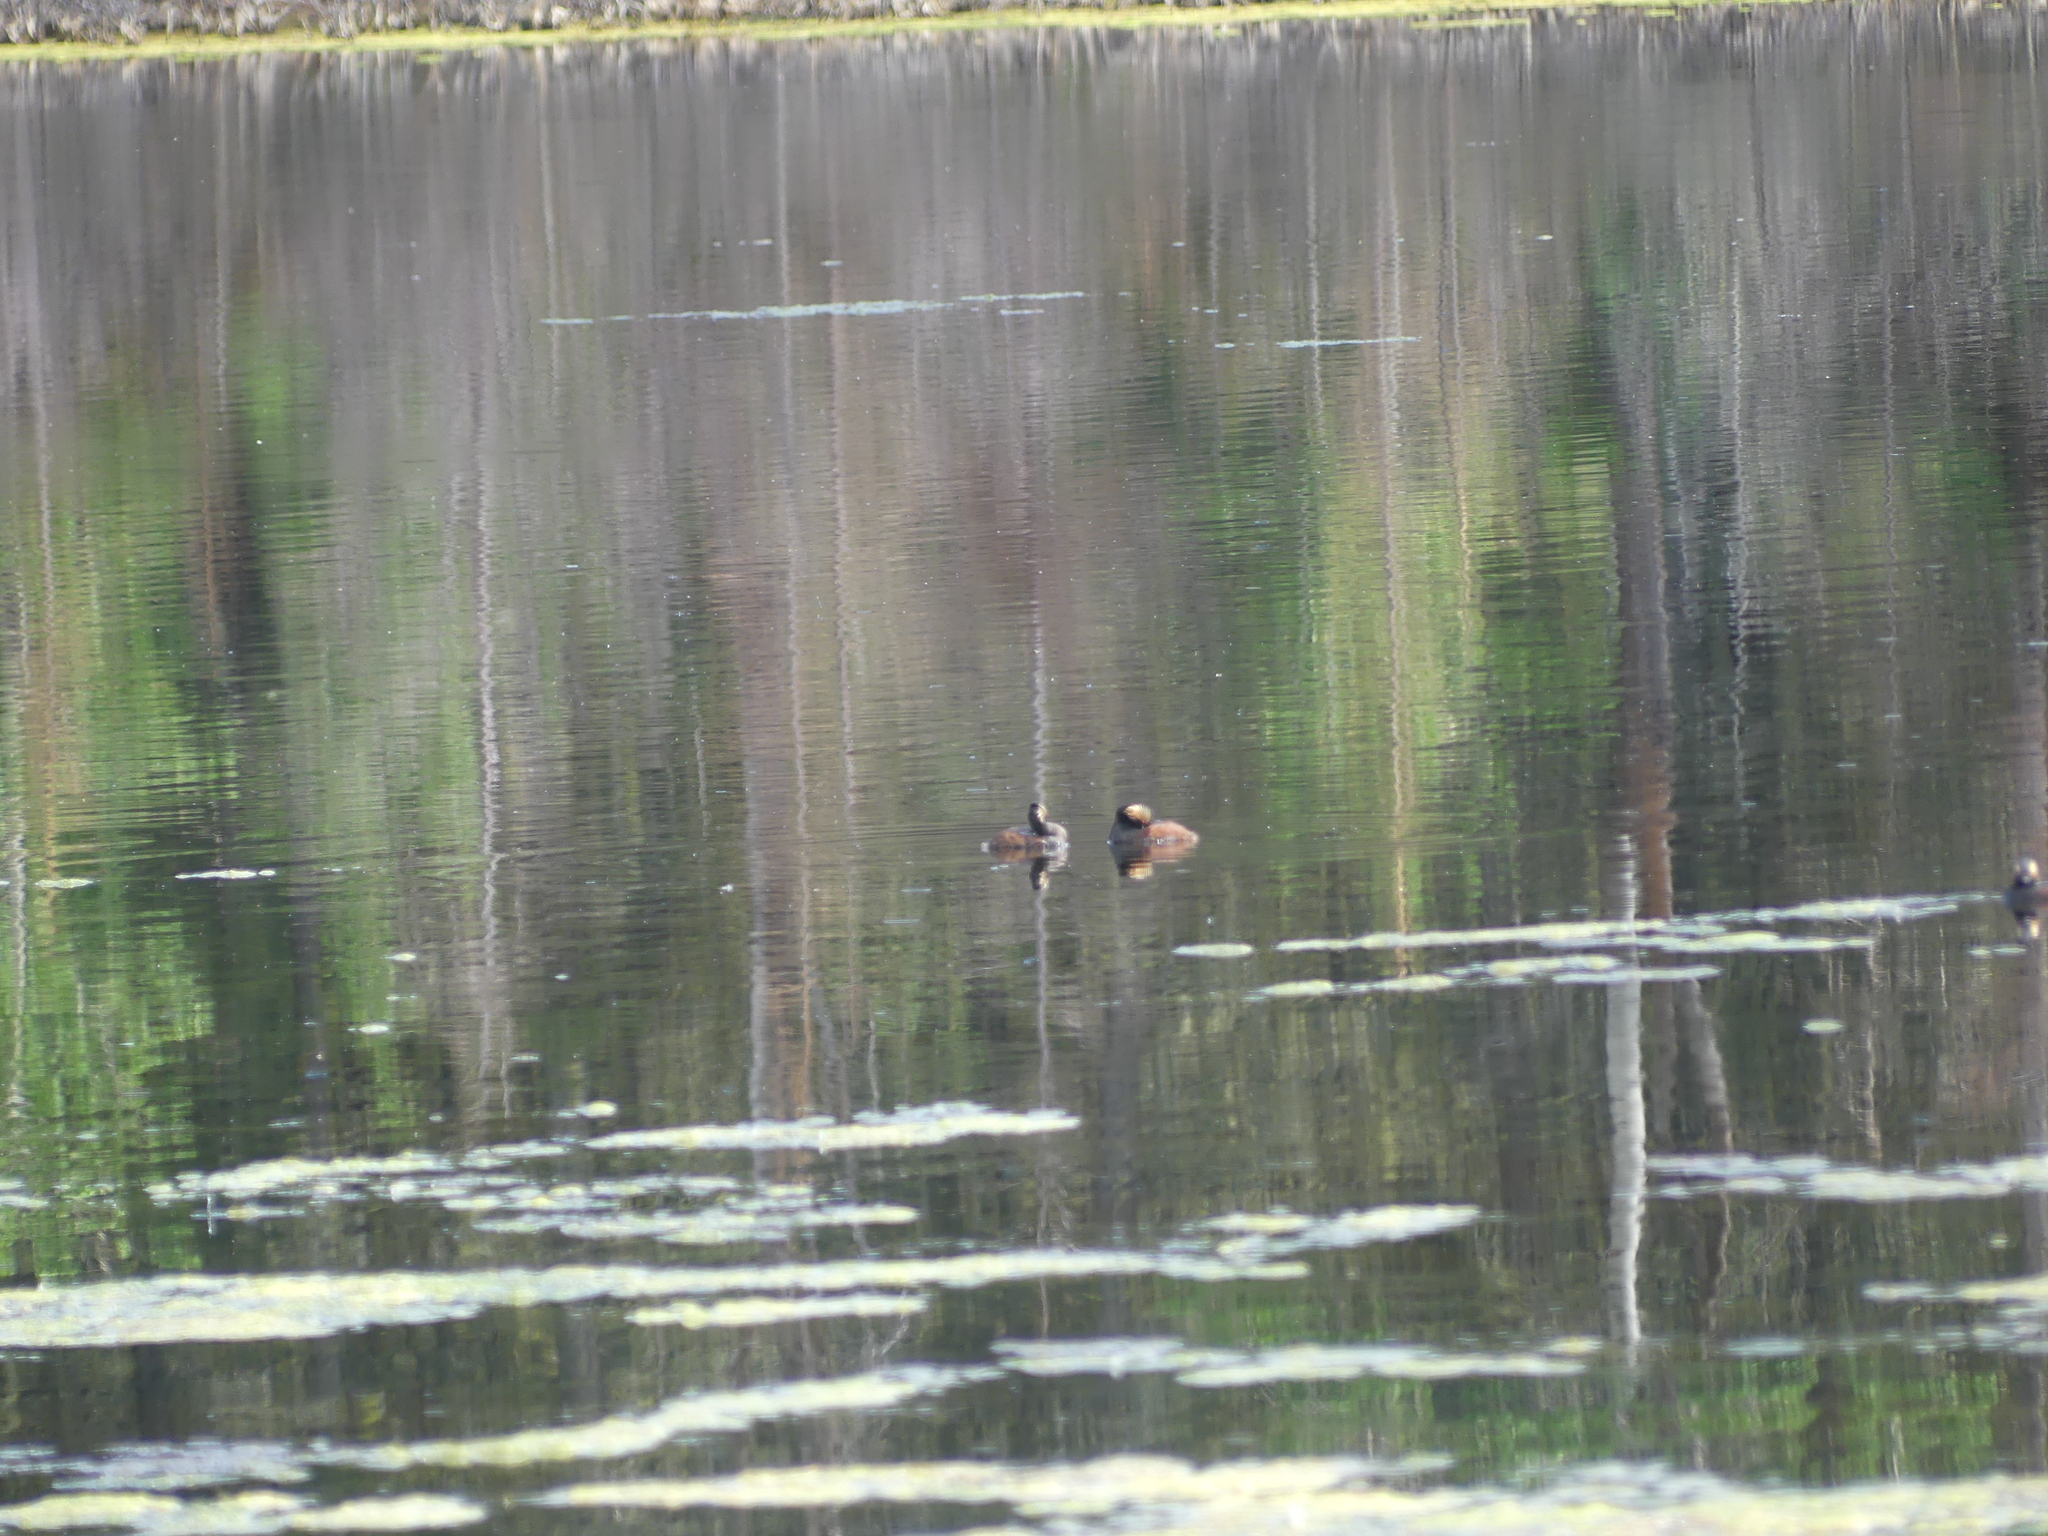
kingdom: Animalia
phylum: Chordata
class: Aves
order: Podicipediformes
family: Podicipedidae
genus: Podiceps
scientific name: Podiceps nigricollis
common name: Black-necked grebe
